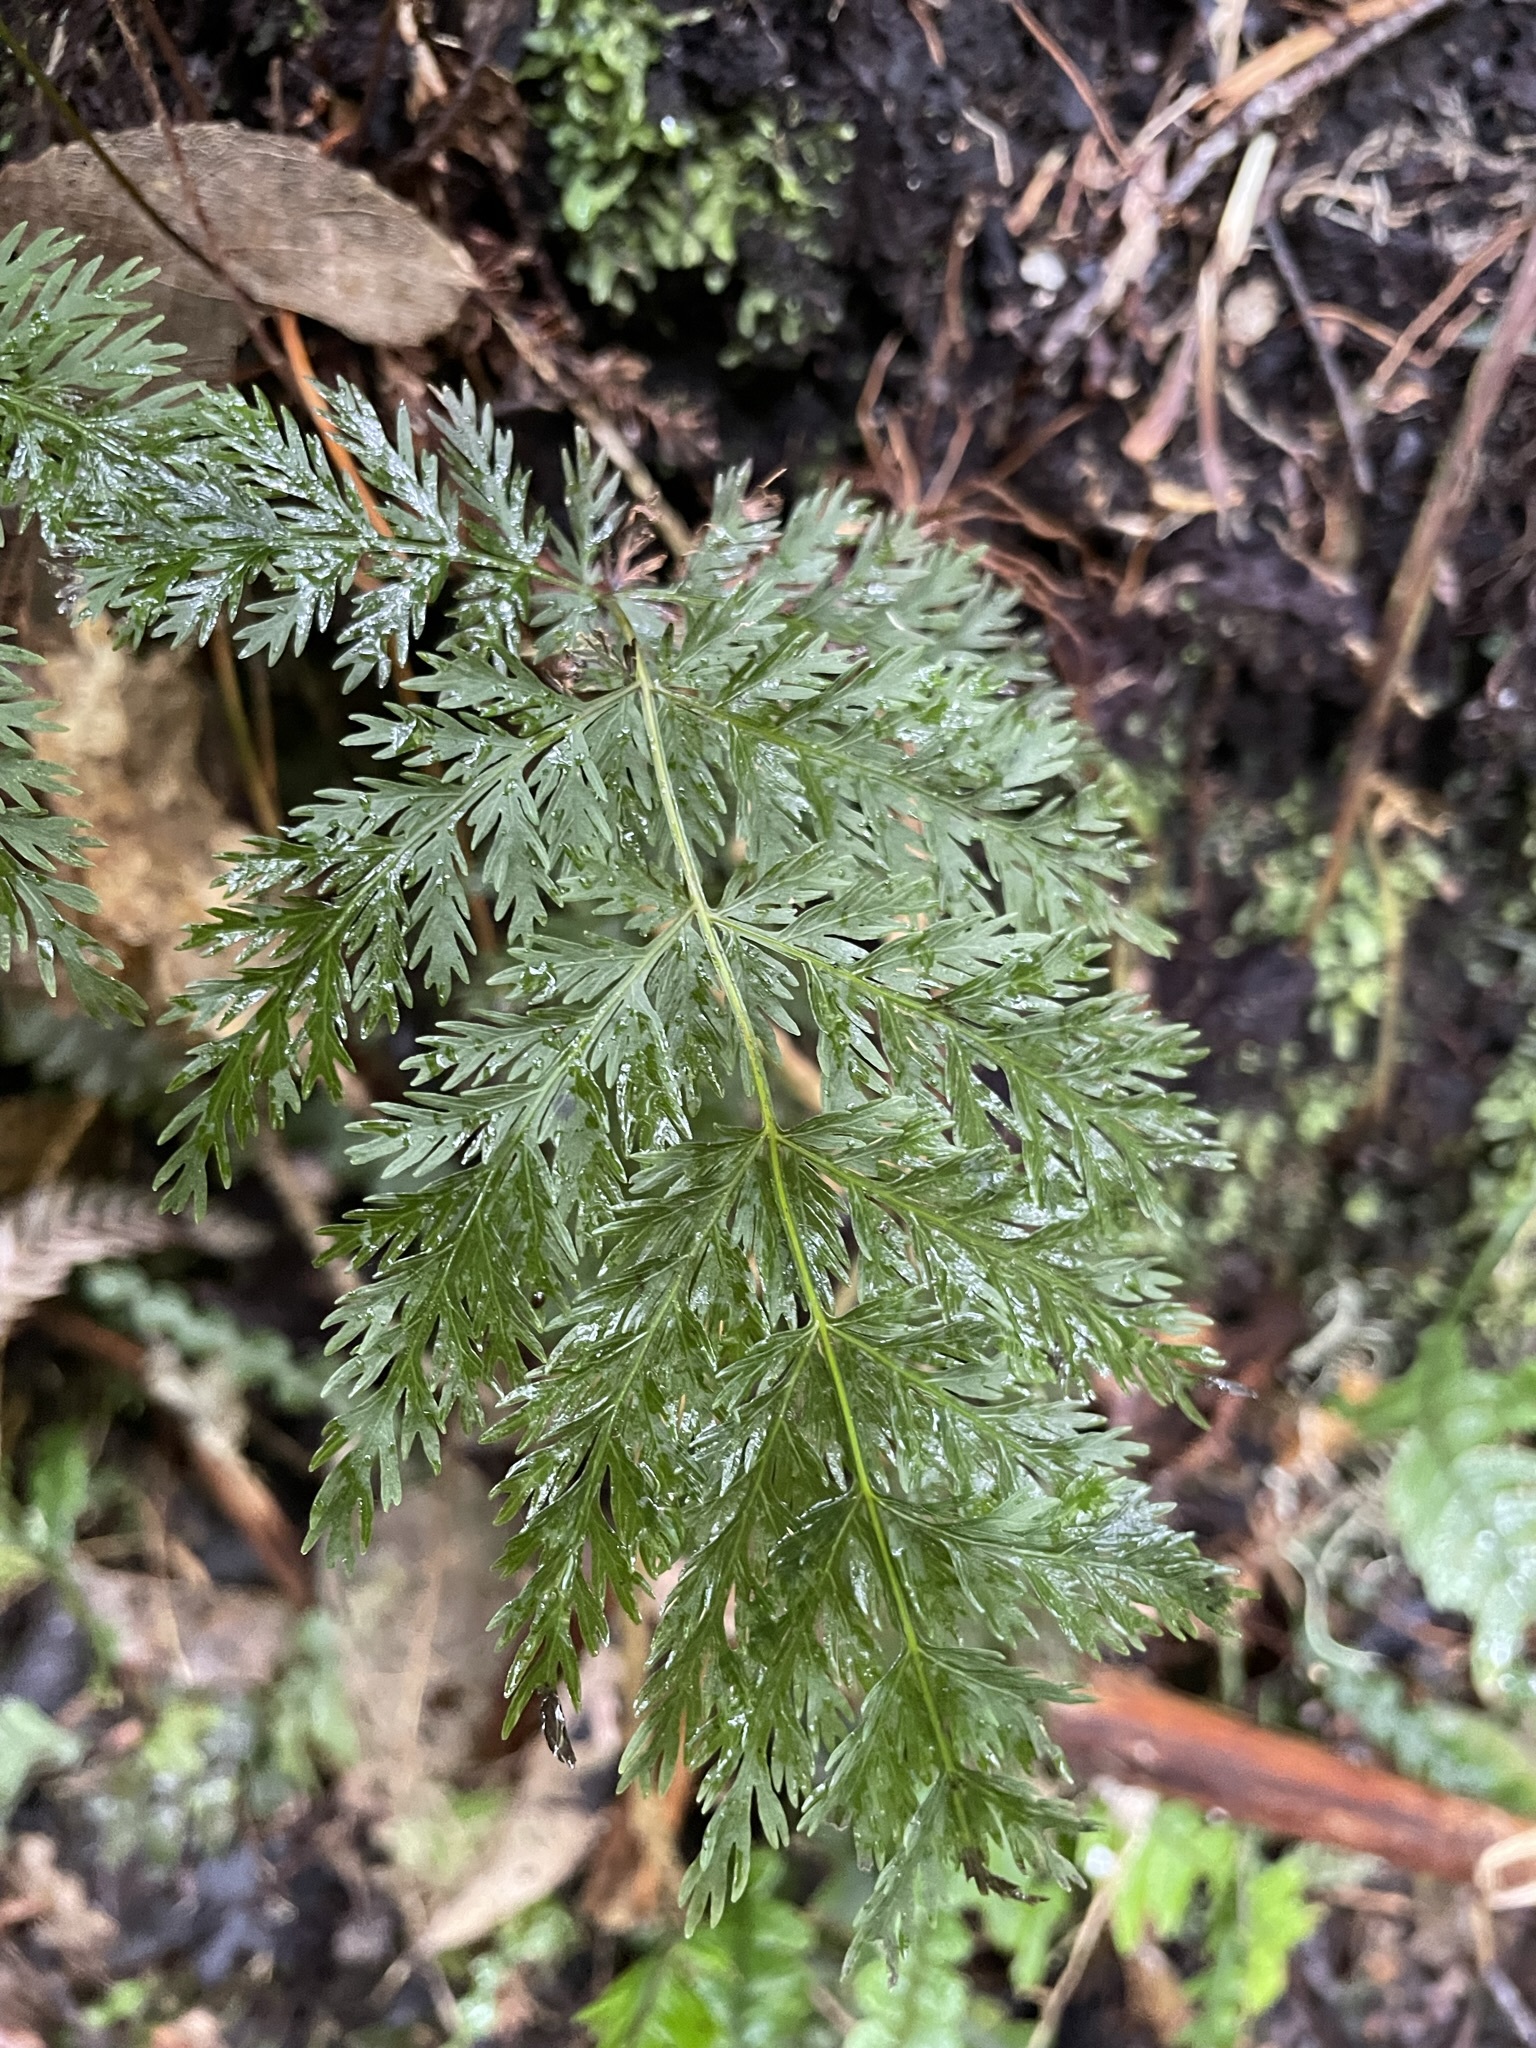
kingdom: Plantae
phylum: Tracheophyta
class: Polypodiopsida
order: Osmundales
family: Osmundaceae
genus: Leptopteris
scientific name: Leptopteris hymenophylloides
